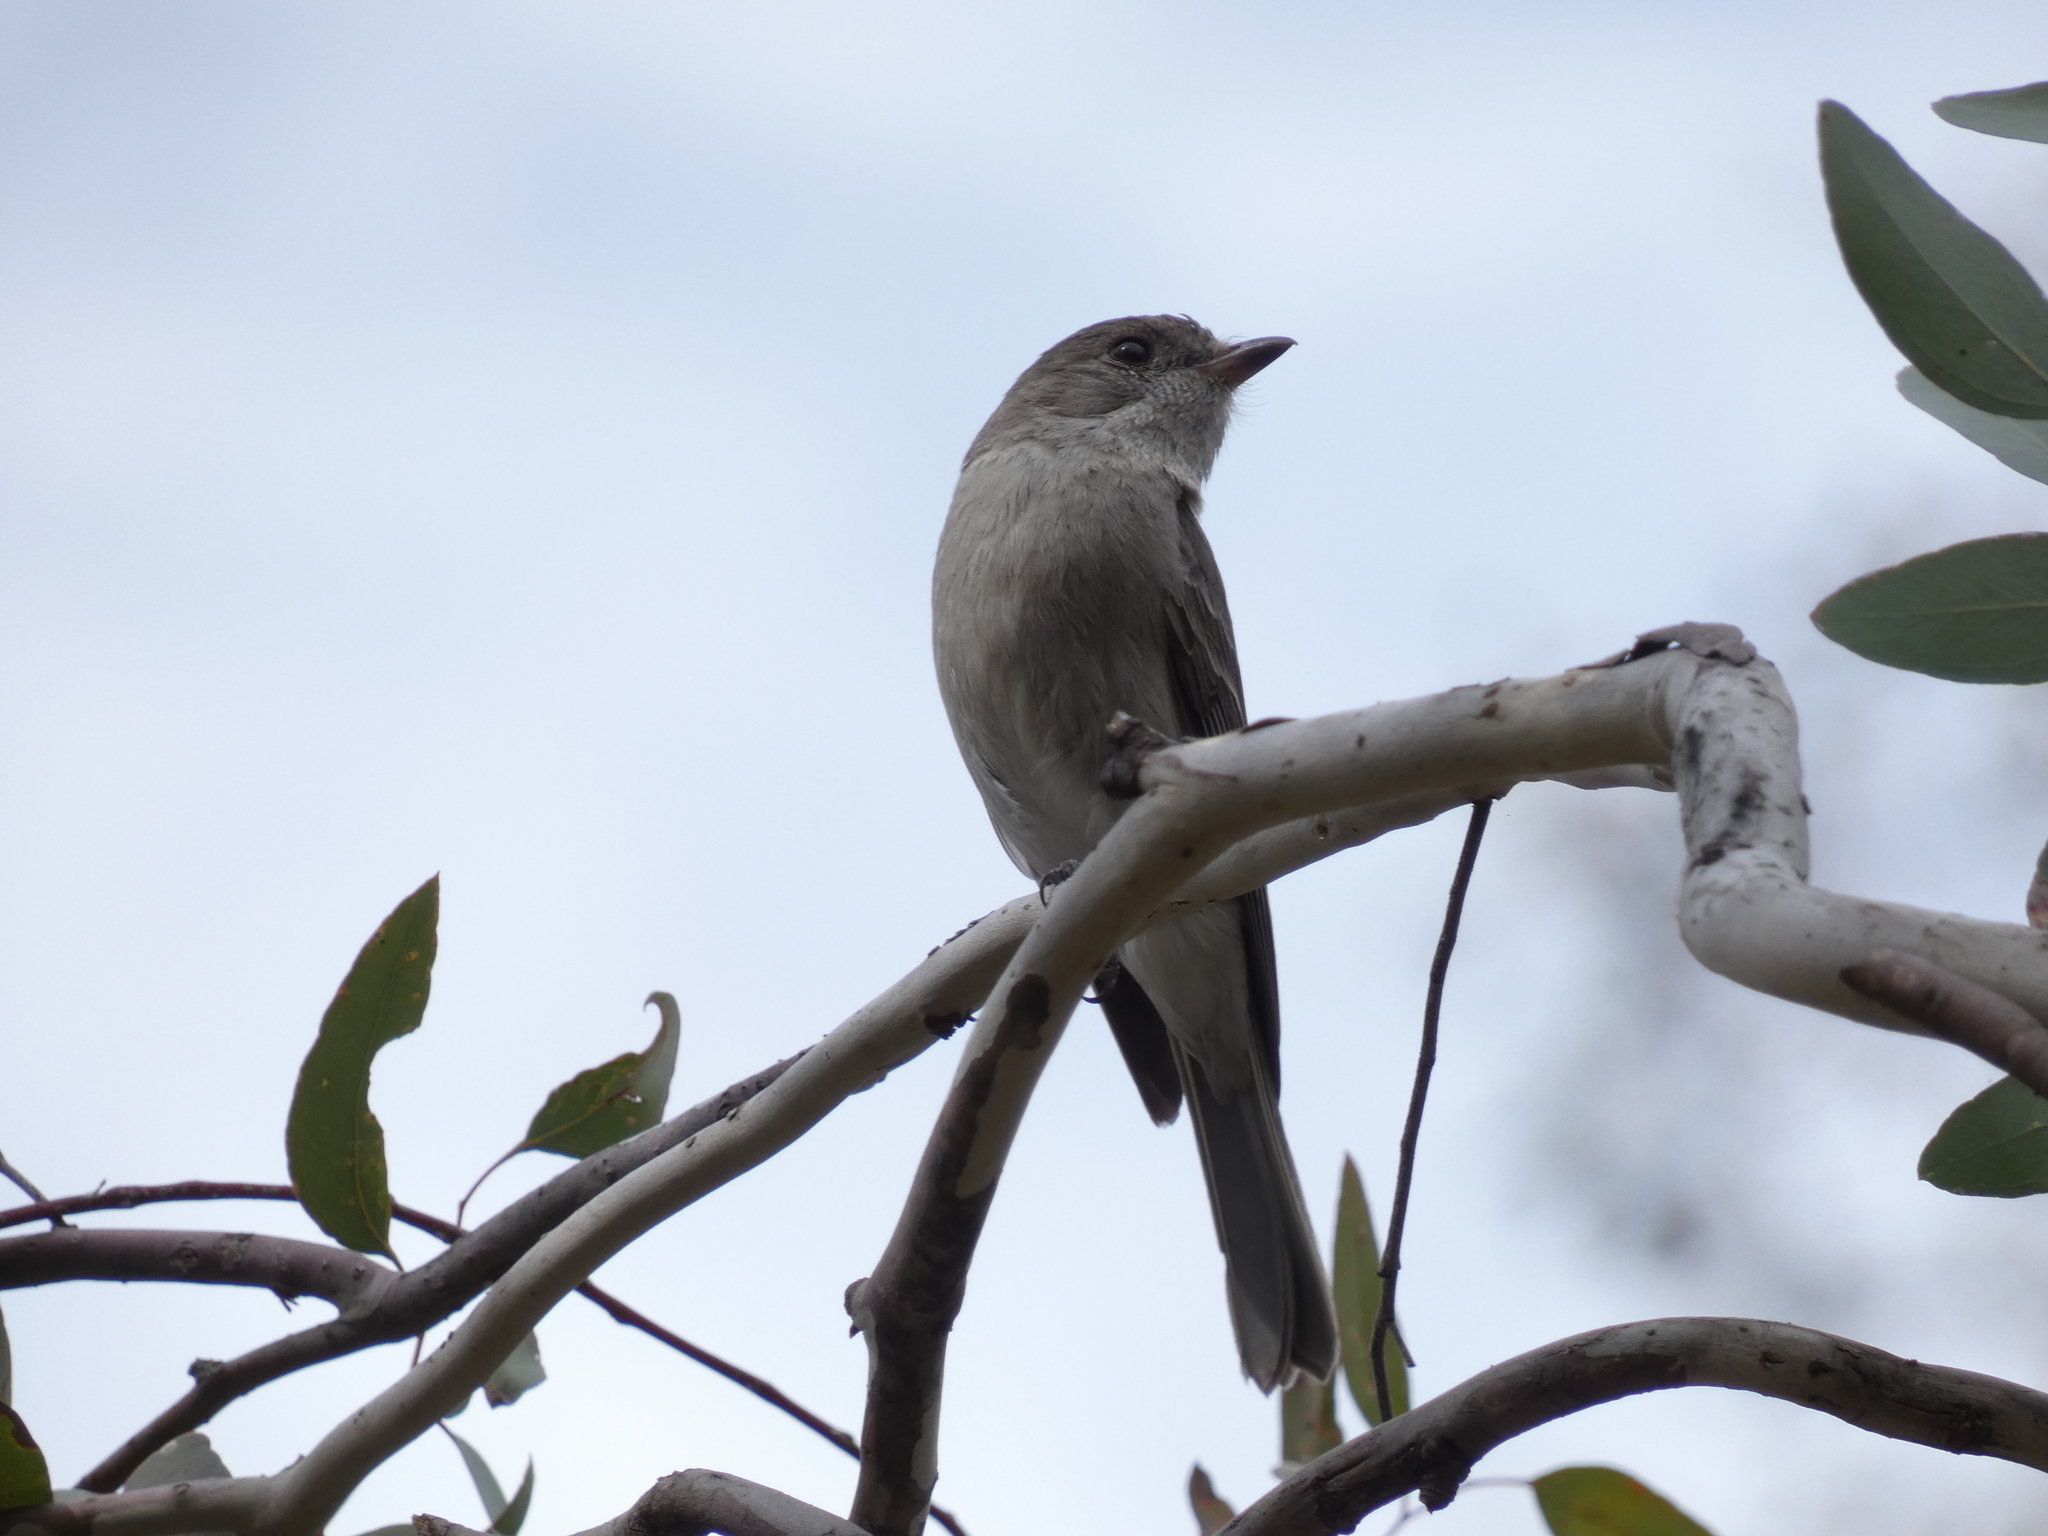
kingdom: Animalia
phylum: Chordata
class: Aves
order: Passeriformes
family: Pachycephalidae
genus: Colluricincla
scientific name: Colluricincla harmonica
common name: Grey shrikethrush
